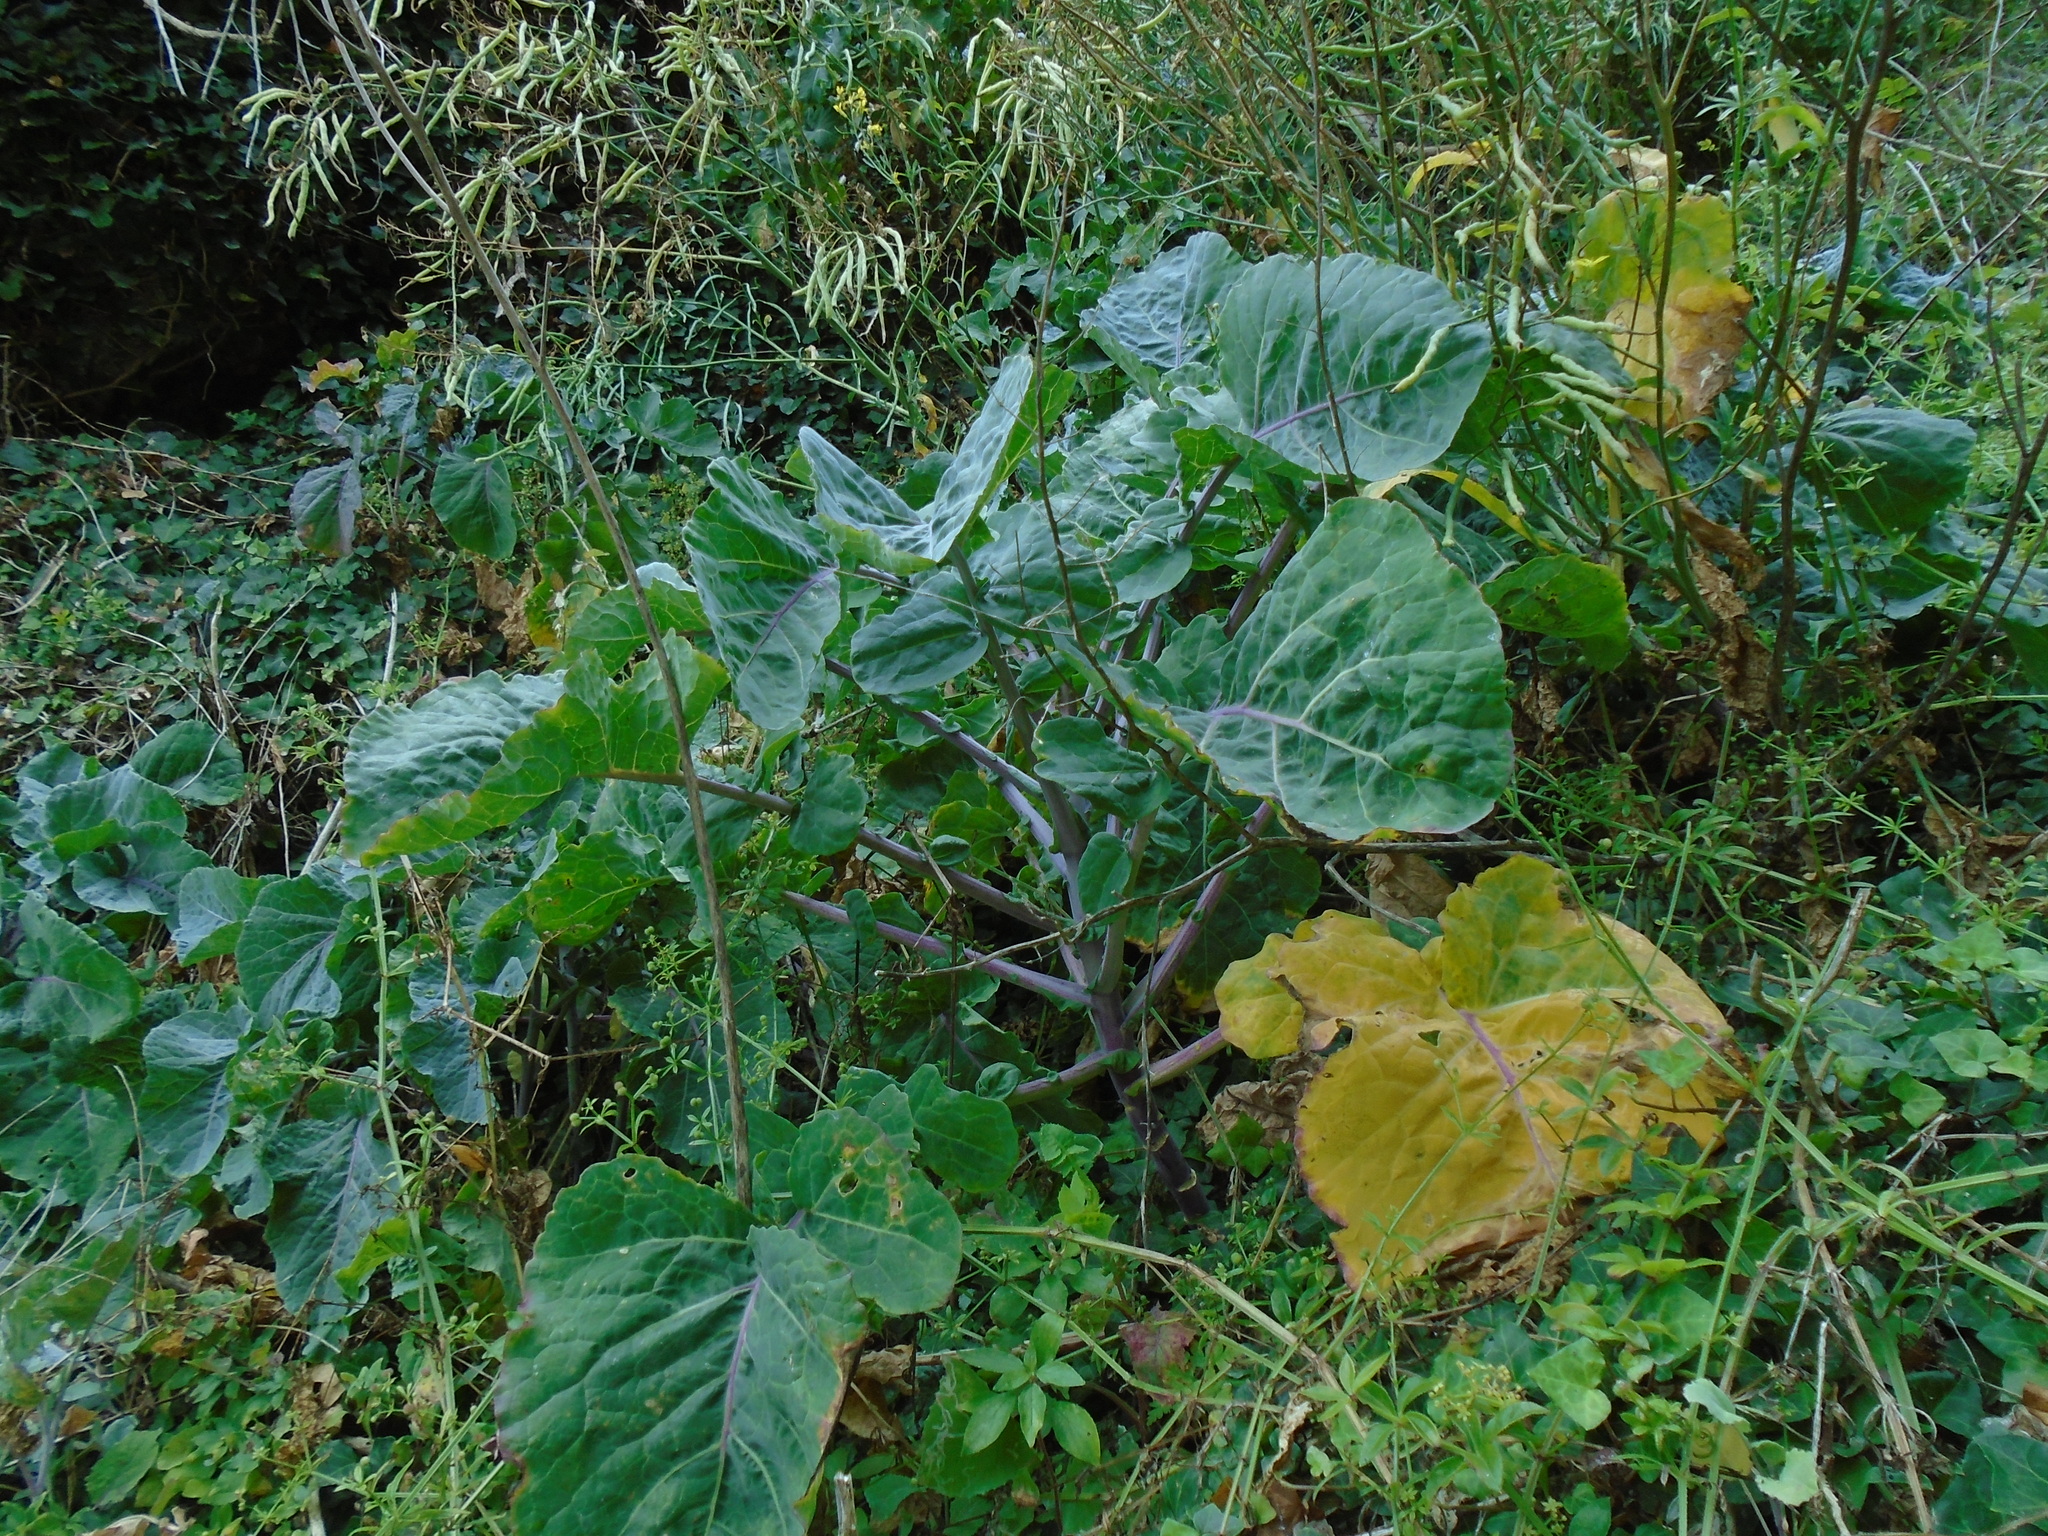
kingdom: Plantae
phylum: Tracheophyta
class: Magnoliopsida
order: Brassicales
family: Brassicaceae
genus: Crambe
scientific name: Crambe maritima
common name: Sea-kale
